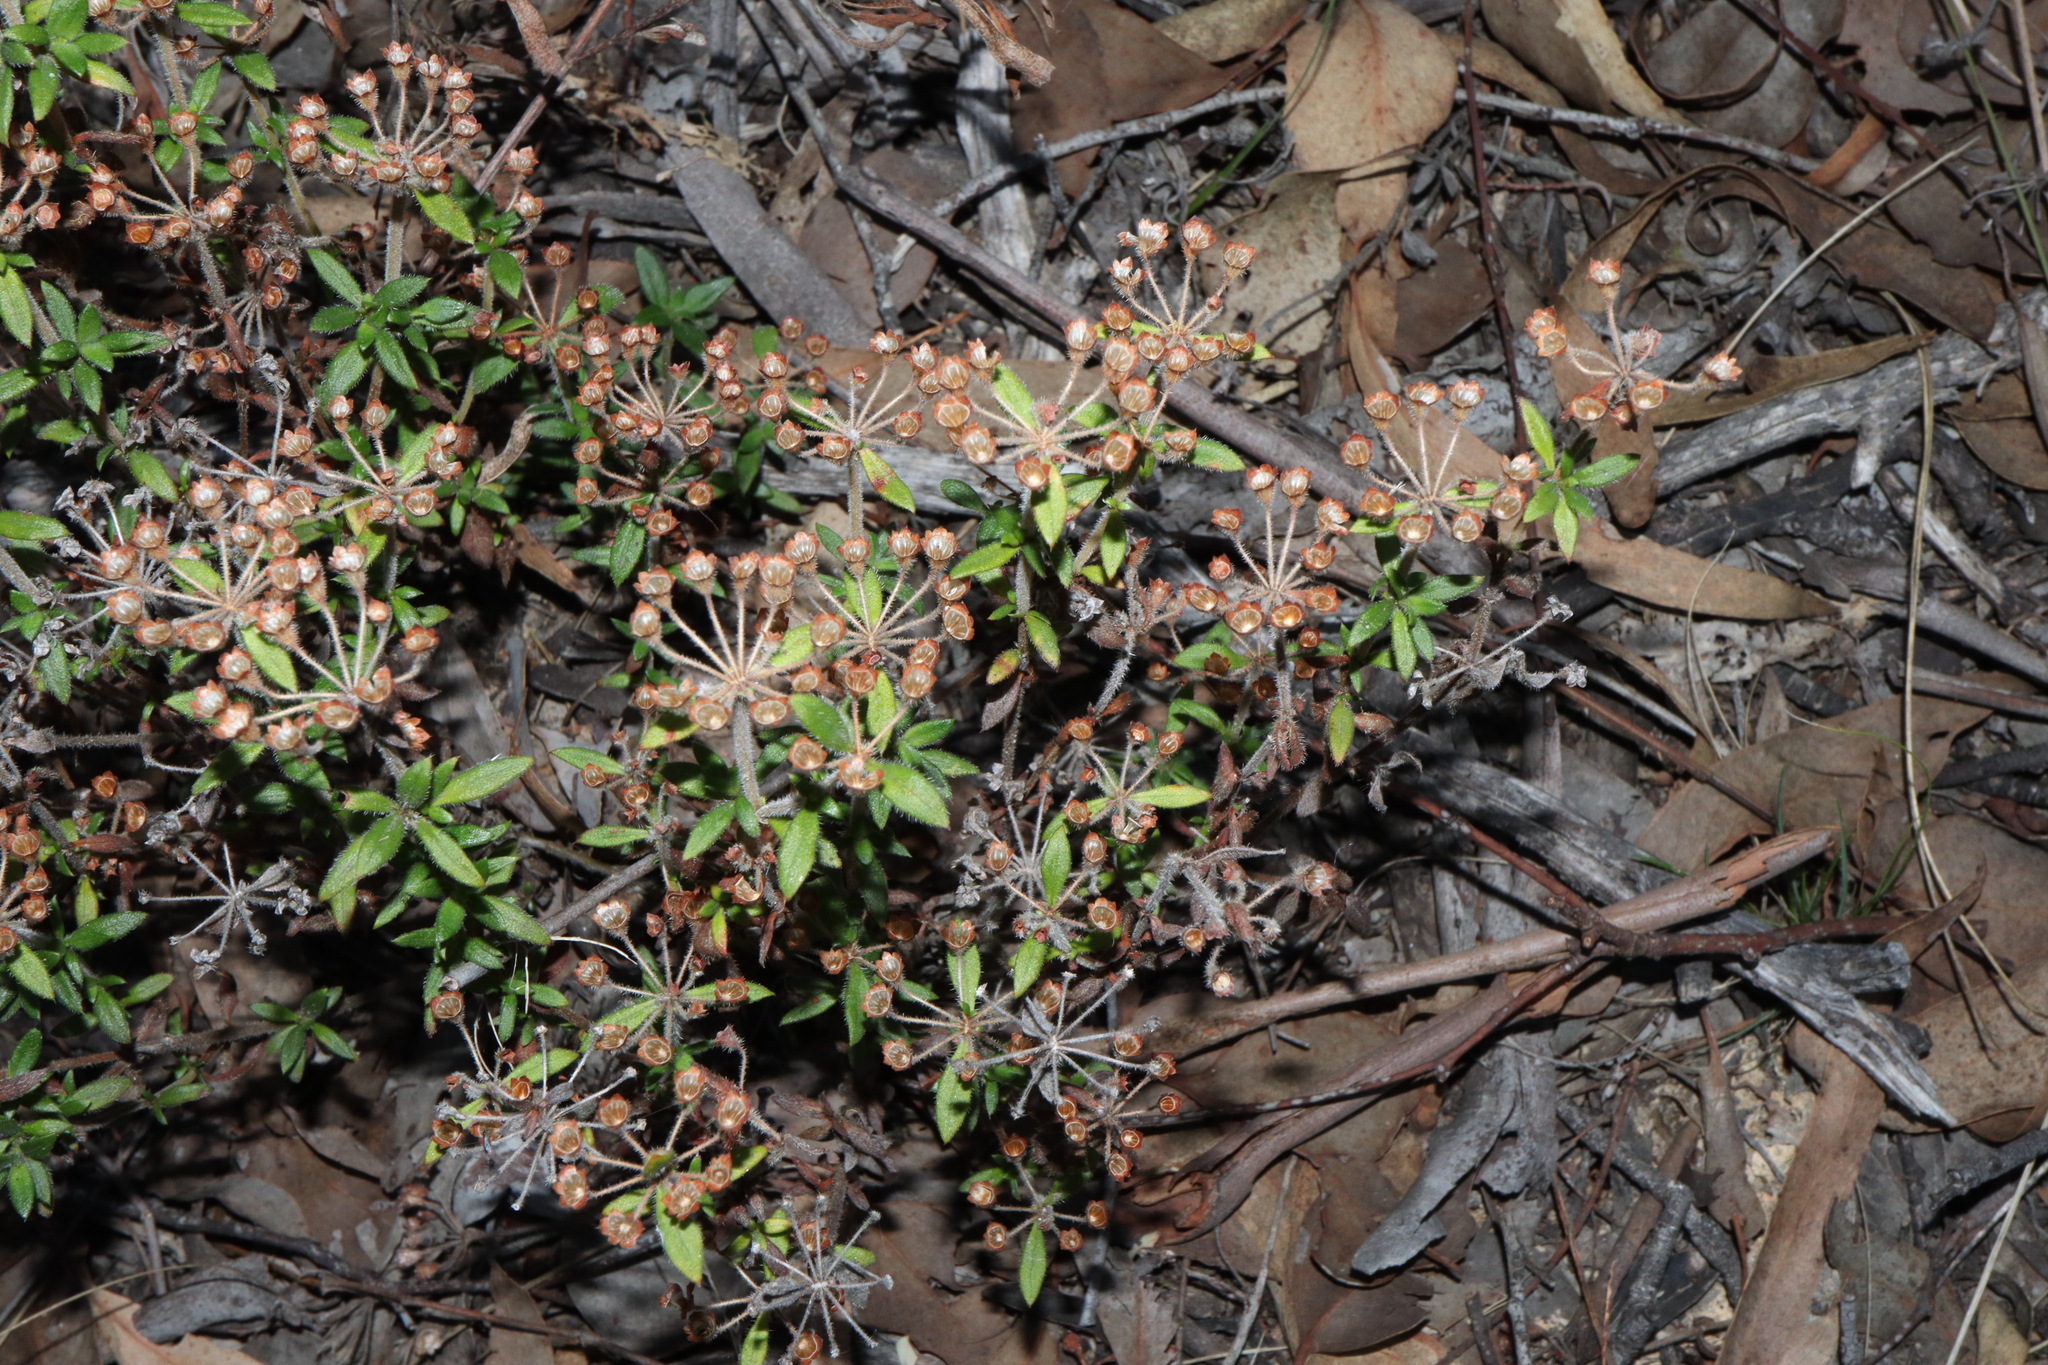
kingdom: Plantae
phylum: Tracheophyta
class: Magnoliopsida
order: Gentianales
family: Rubiaceae
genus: Pomax
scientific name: Pomax umbellata
